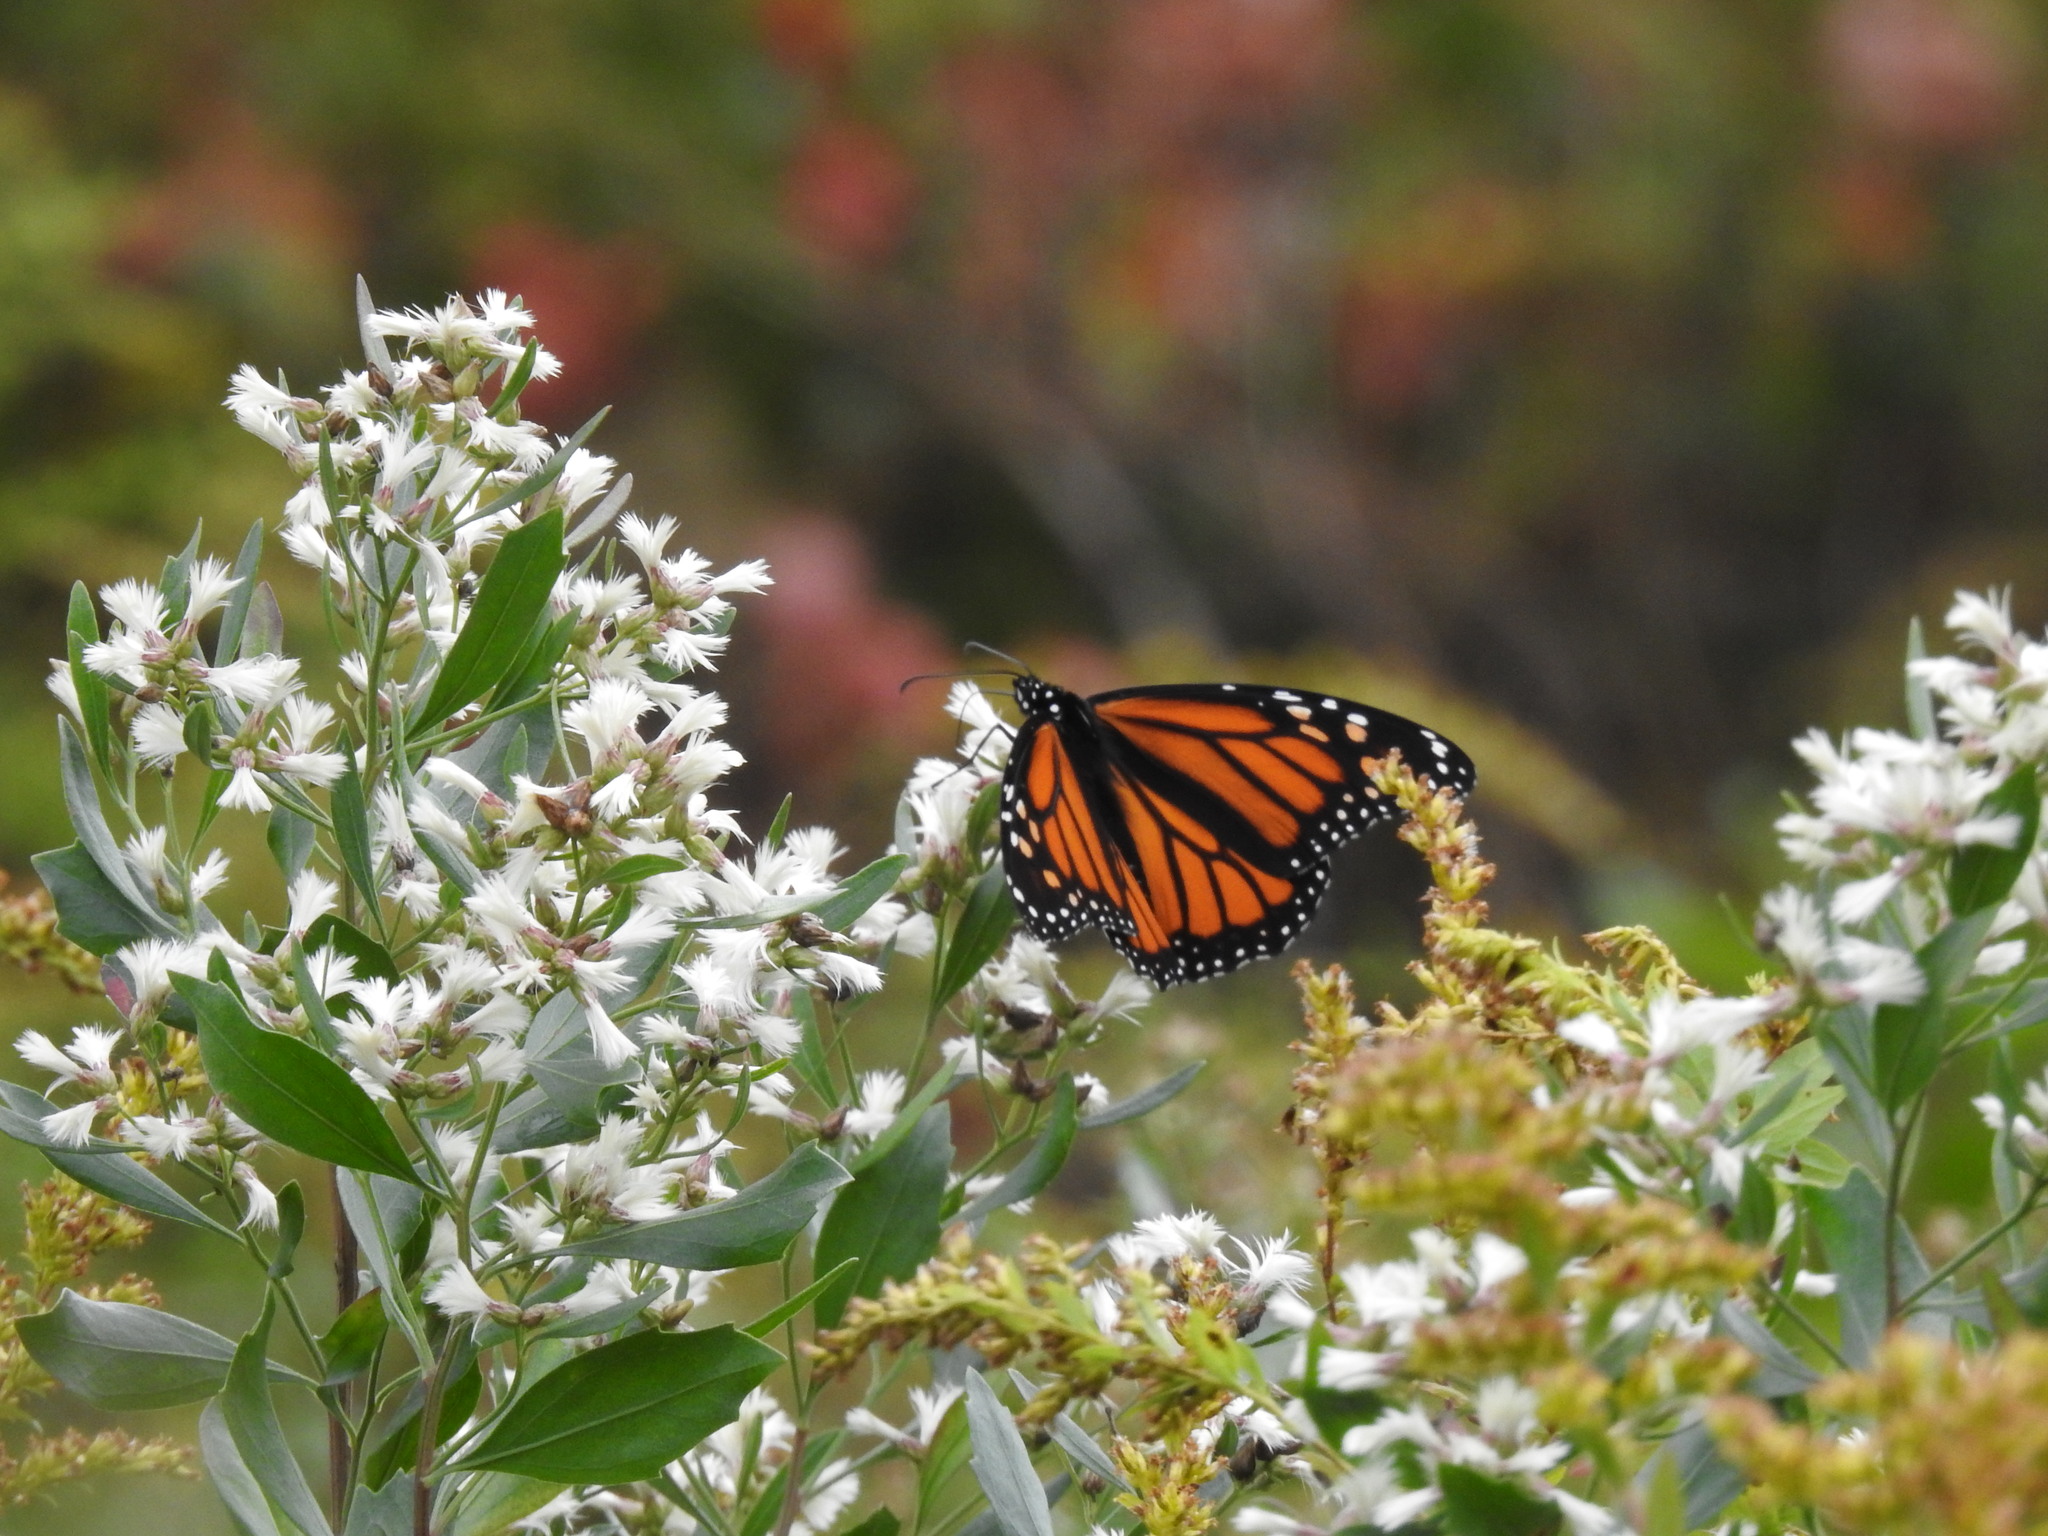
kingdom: Animalia
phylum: Arthropoda
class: Insecta
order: Lepidoptera
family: Nymphalidae
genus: Danaus
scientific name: Danaus plexippus
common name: Monarch
